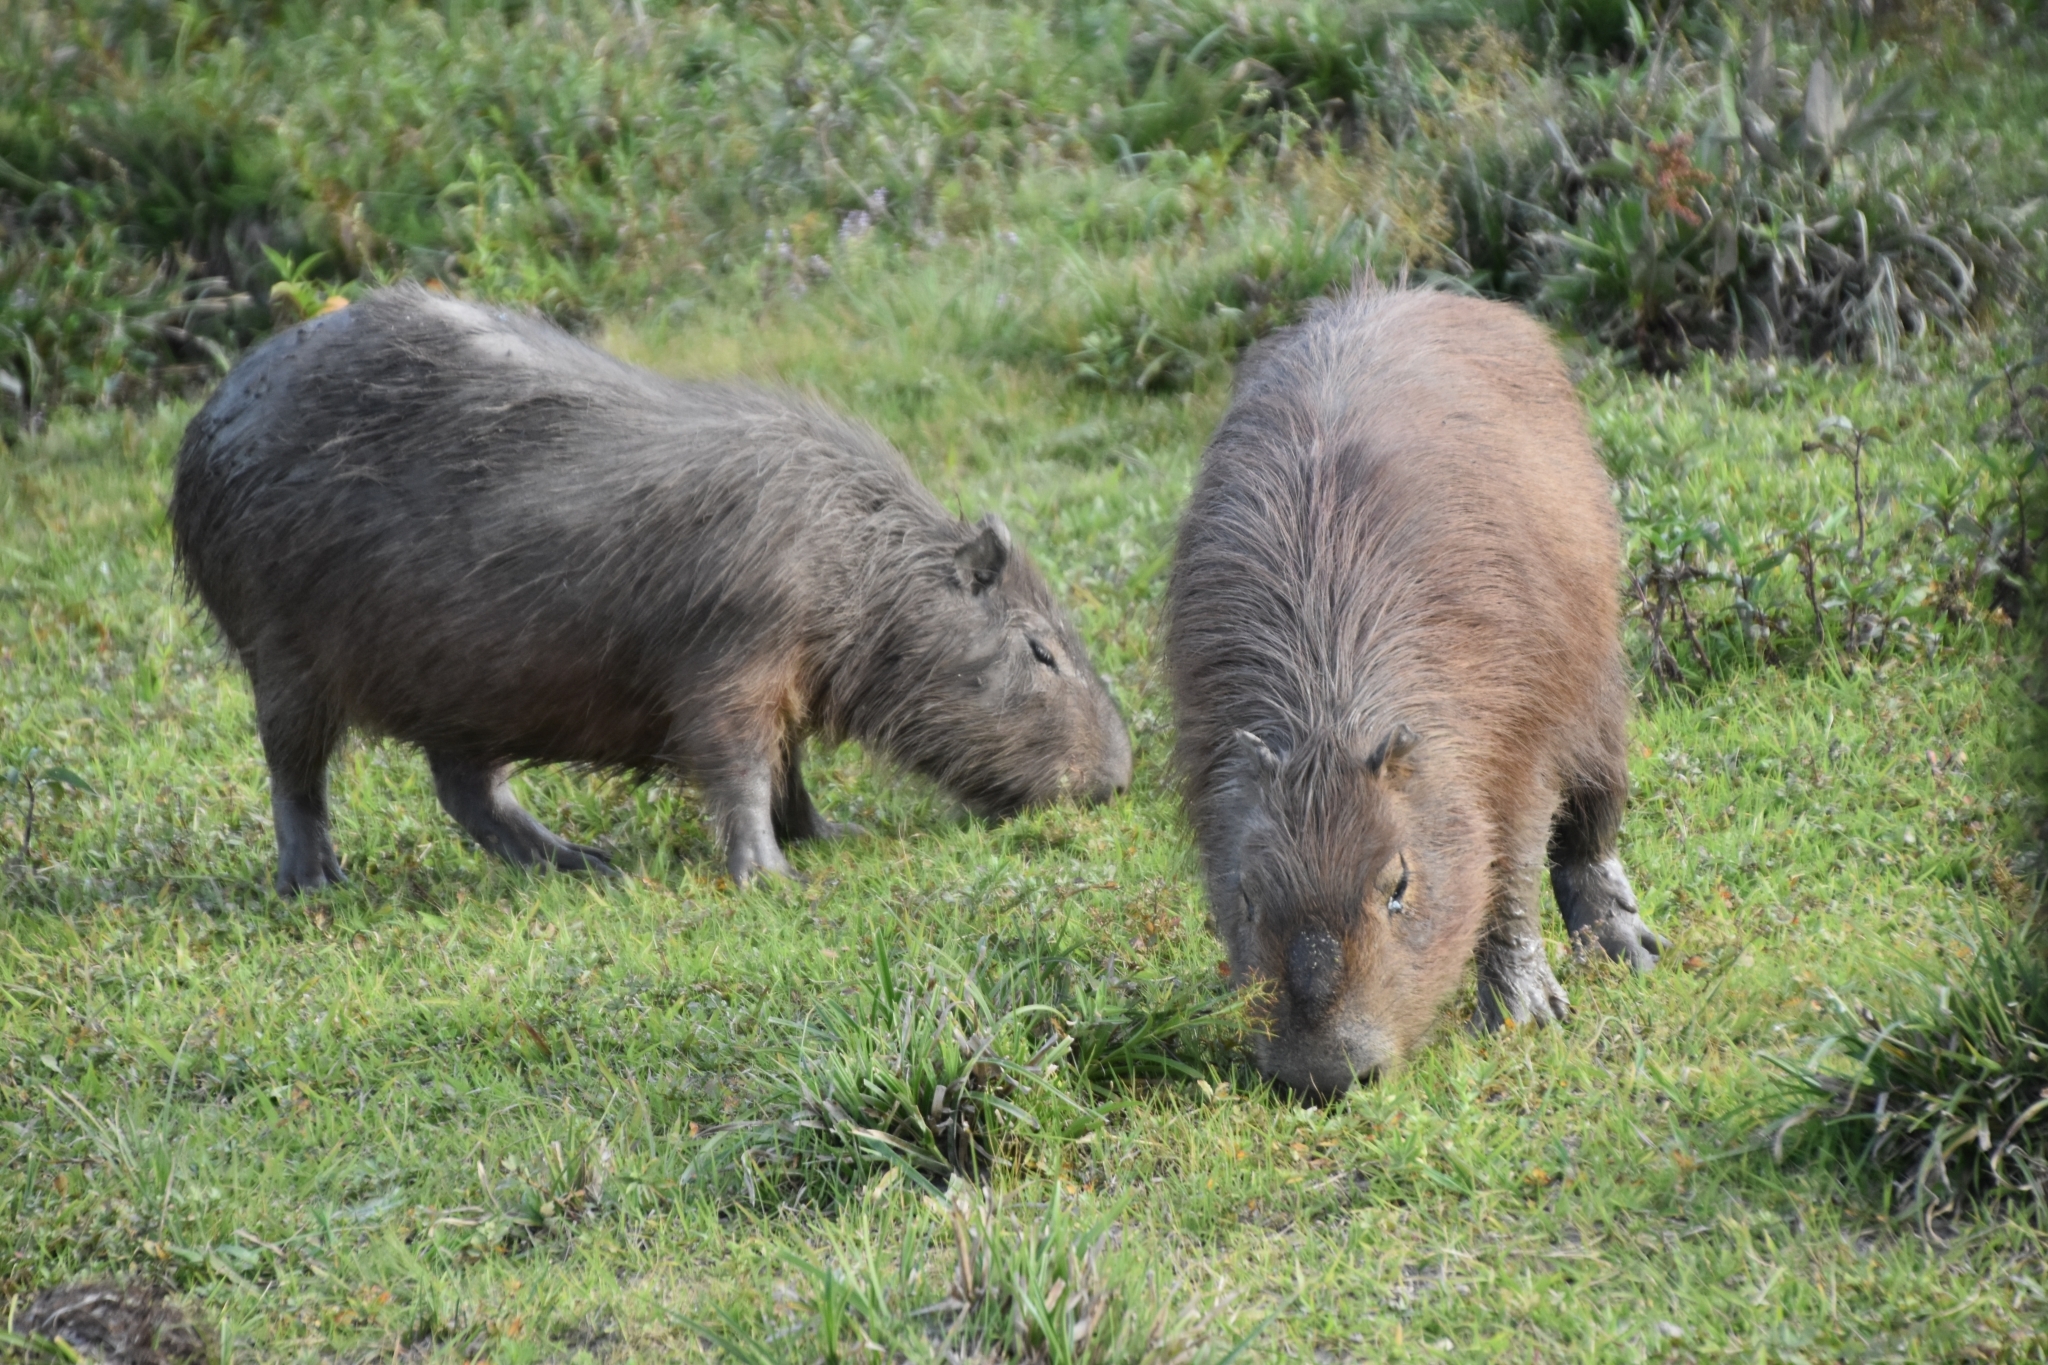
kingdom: Animalia
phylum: Chordata
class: Mammalia
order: Rodentia
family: Caviidae
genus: Hydrochoerus
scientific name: Hydrochoerus hydrochaeris
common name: Capybara
